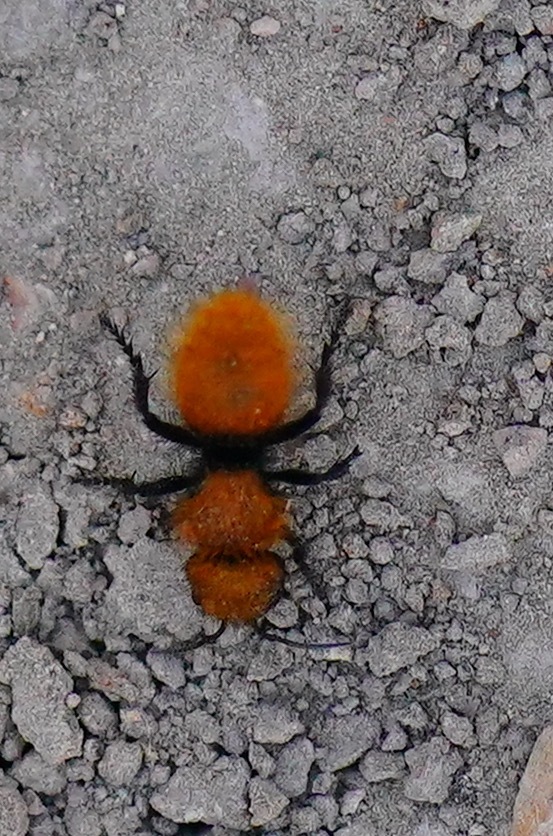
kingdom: Animalia
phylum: Arthropoda
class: Insecta
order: Hymenoptera
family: Mutillidae
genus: Dasymutilla
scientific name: Dasymutilla
